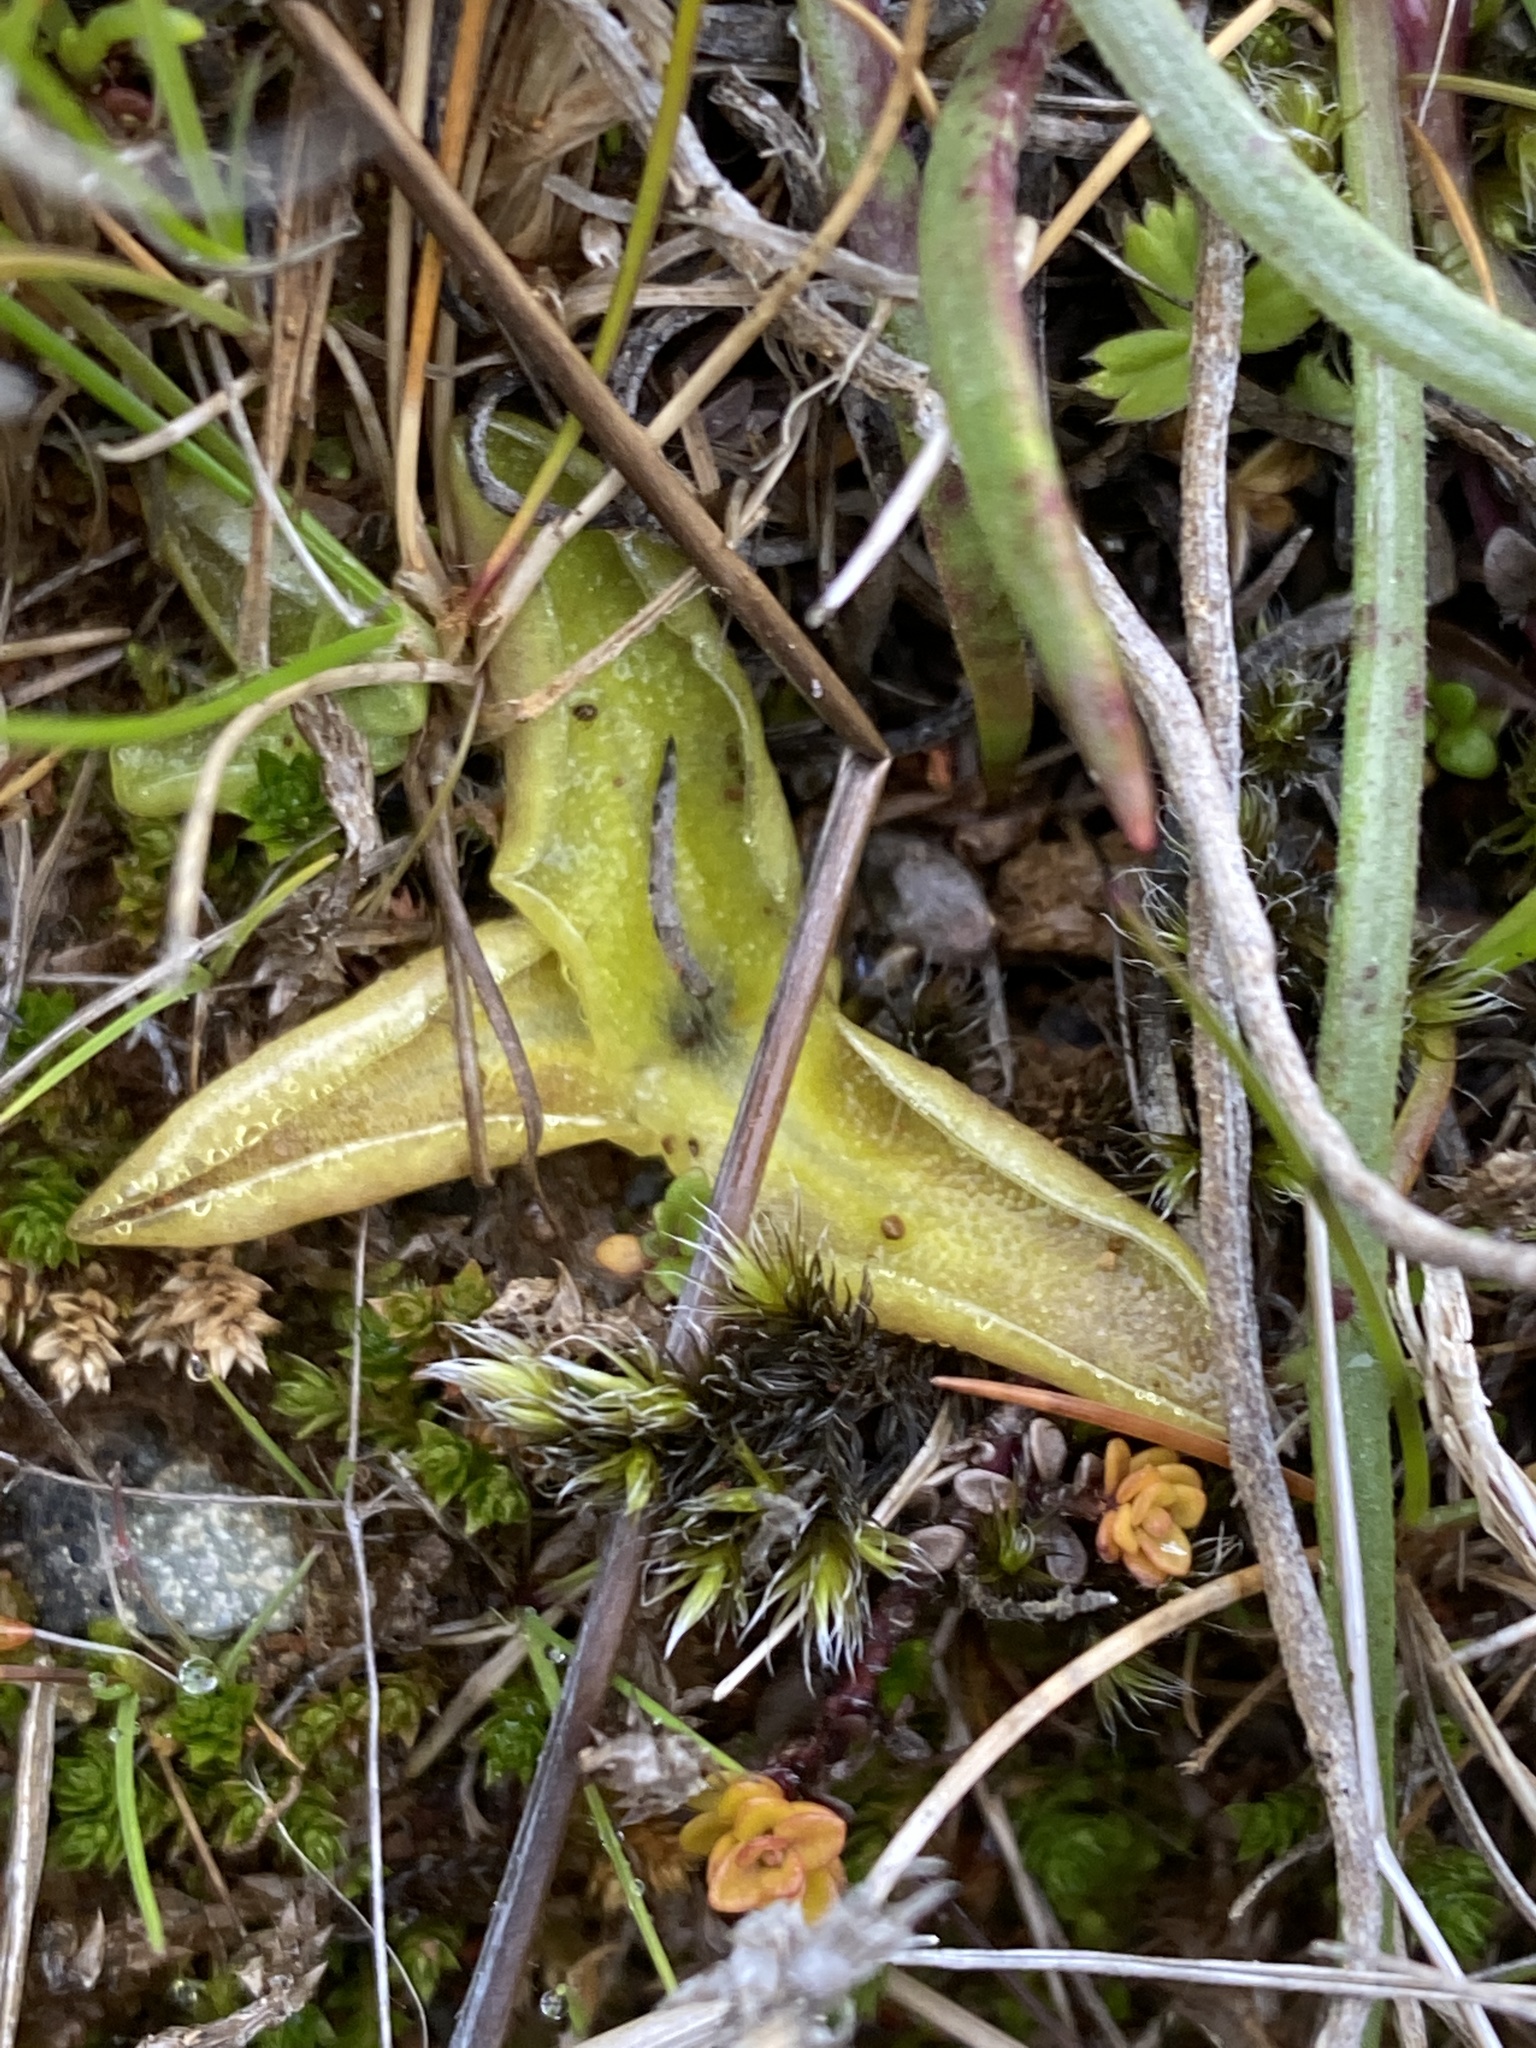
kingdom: Plantae
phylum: Tracheophyta
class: Magnoliopsida
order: Lamiales
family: Lentibulariaceae
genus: Pinguicula
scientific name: Pinguicula vulgaris
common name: Common butterwort
